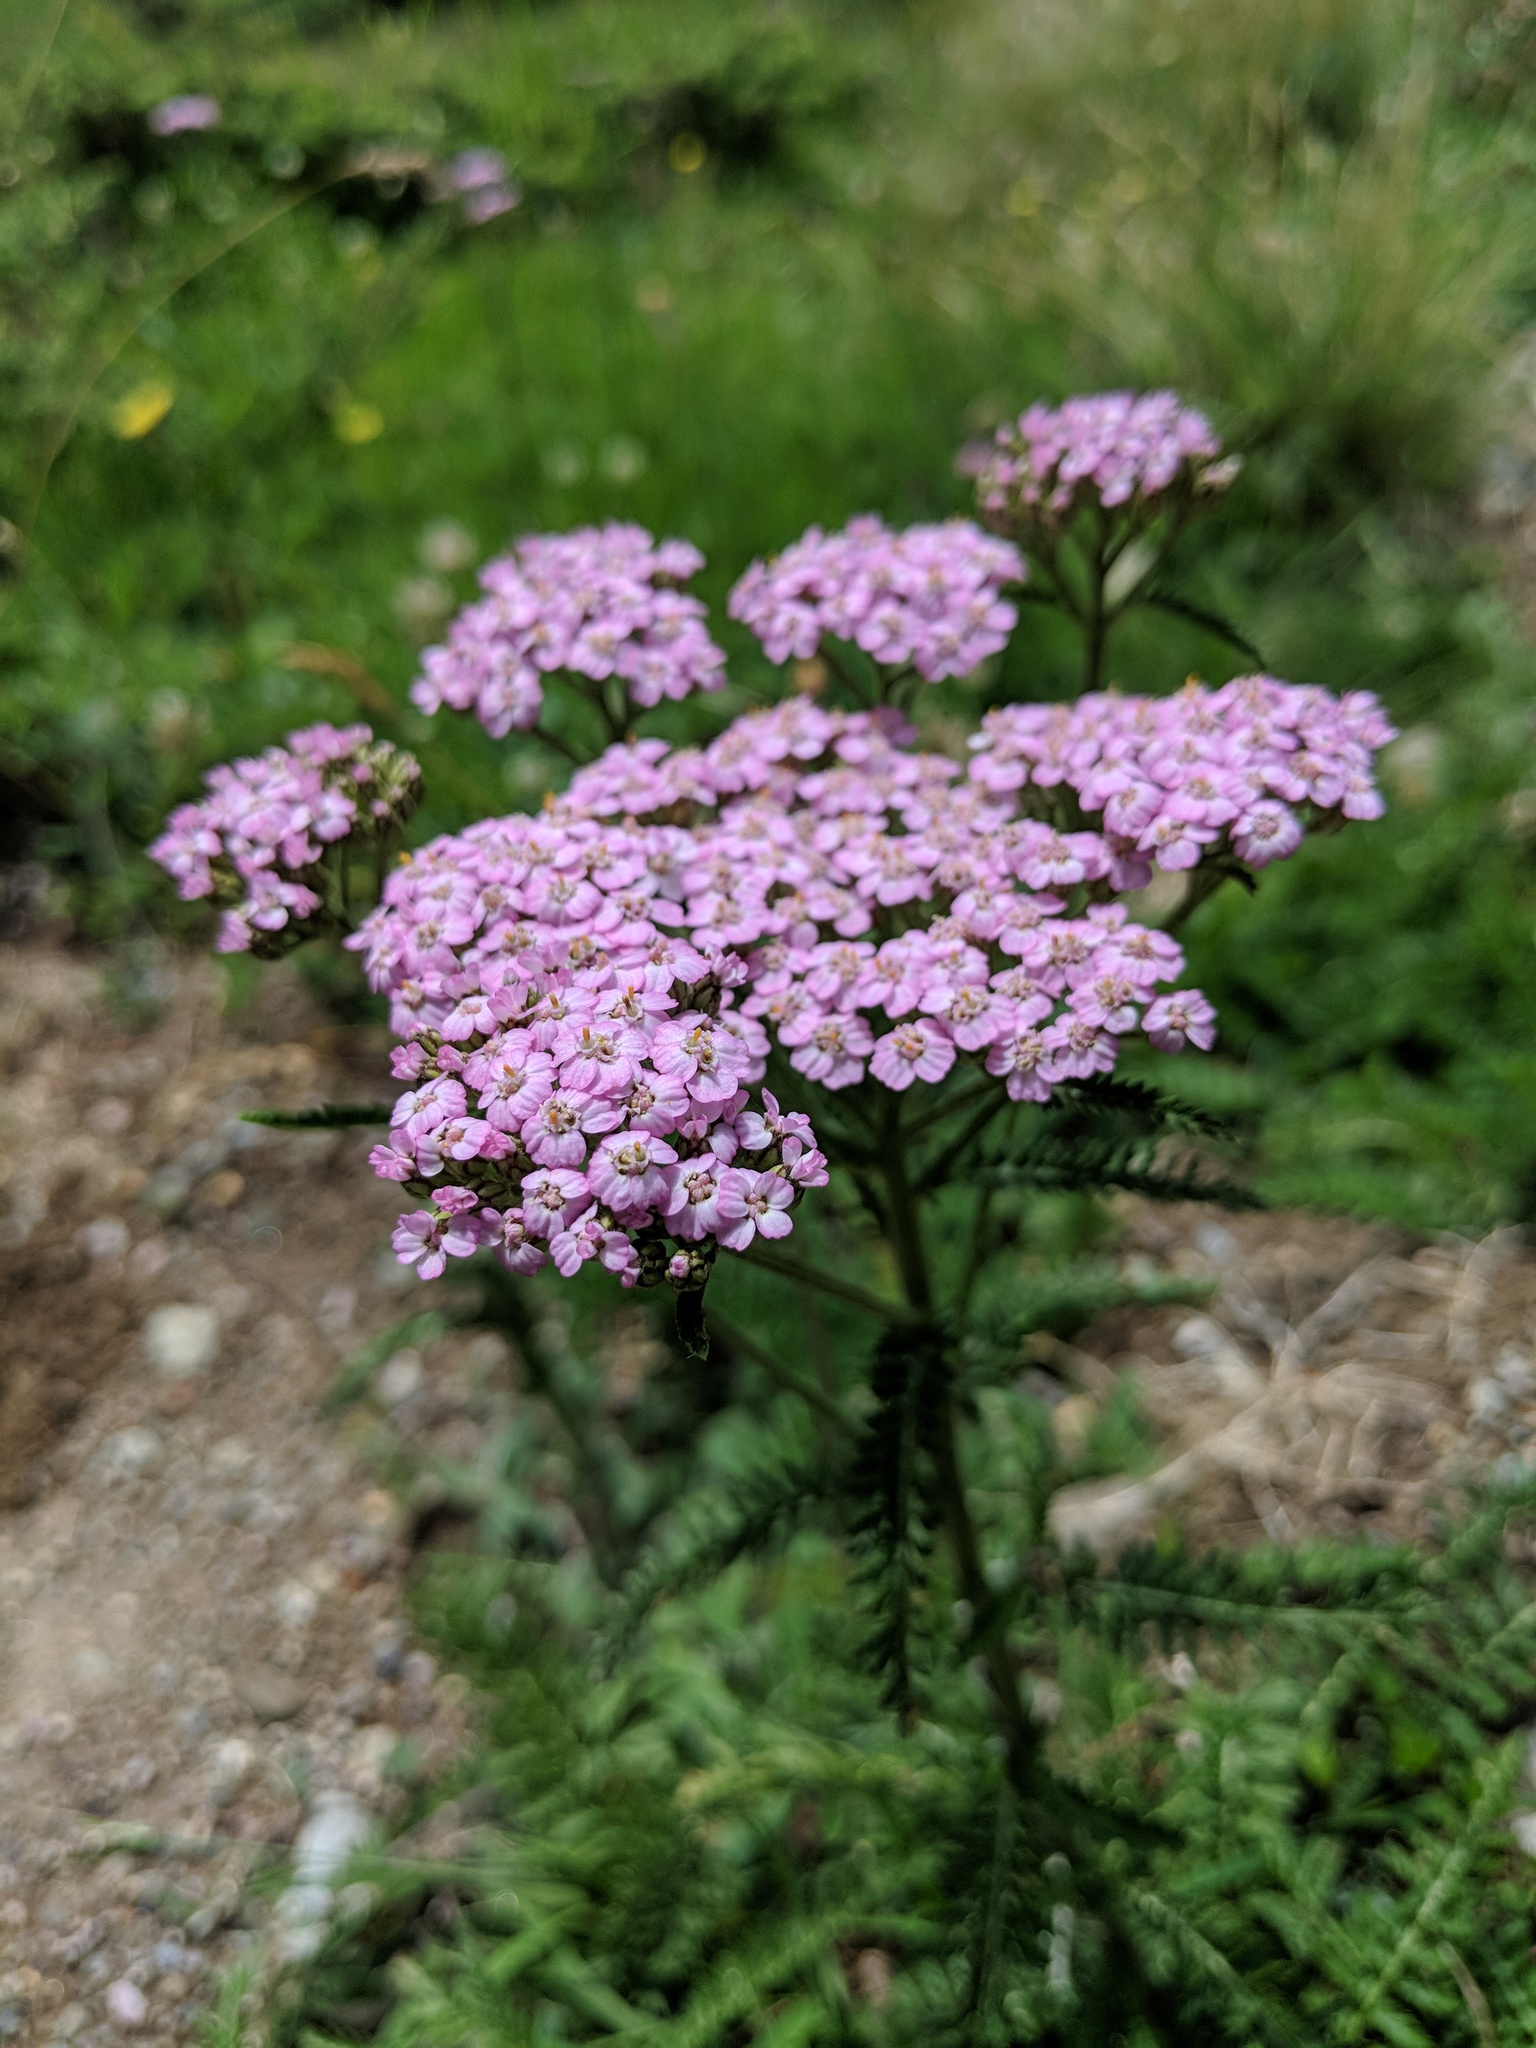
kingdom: Plantae
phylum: Tracheophyta
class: Magnoliopsida
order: Asterales
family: Asteraceae
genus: Achillea
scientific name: Achillea millefolium
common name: Yarrow
